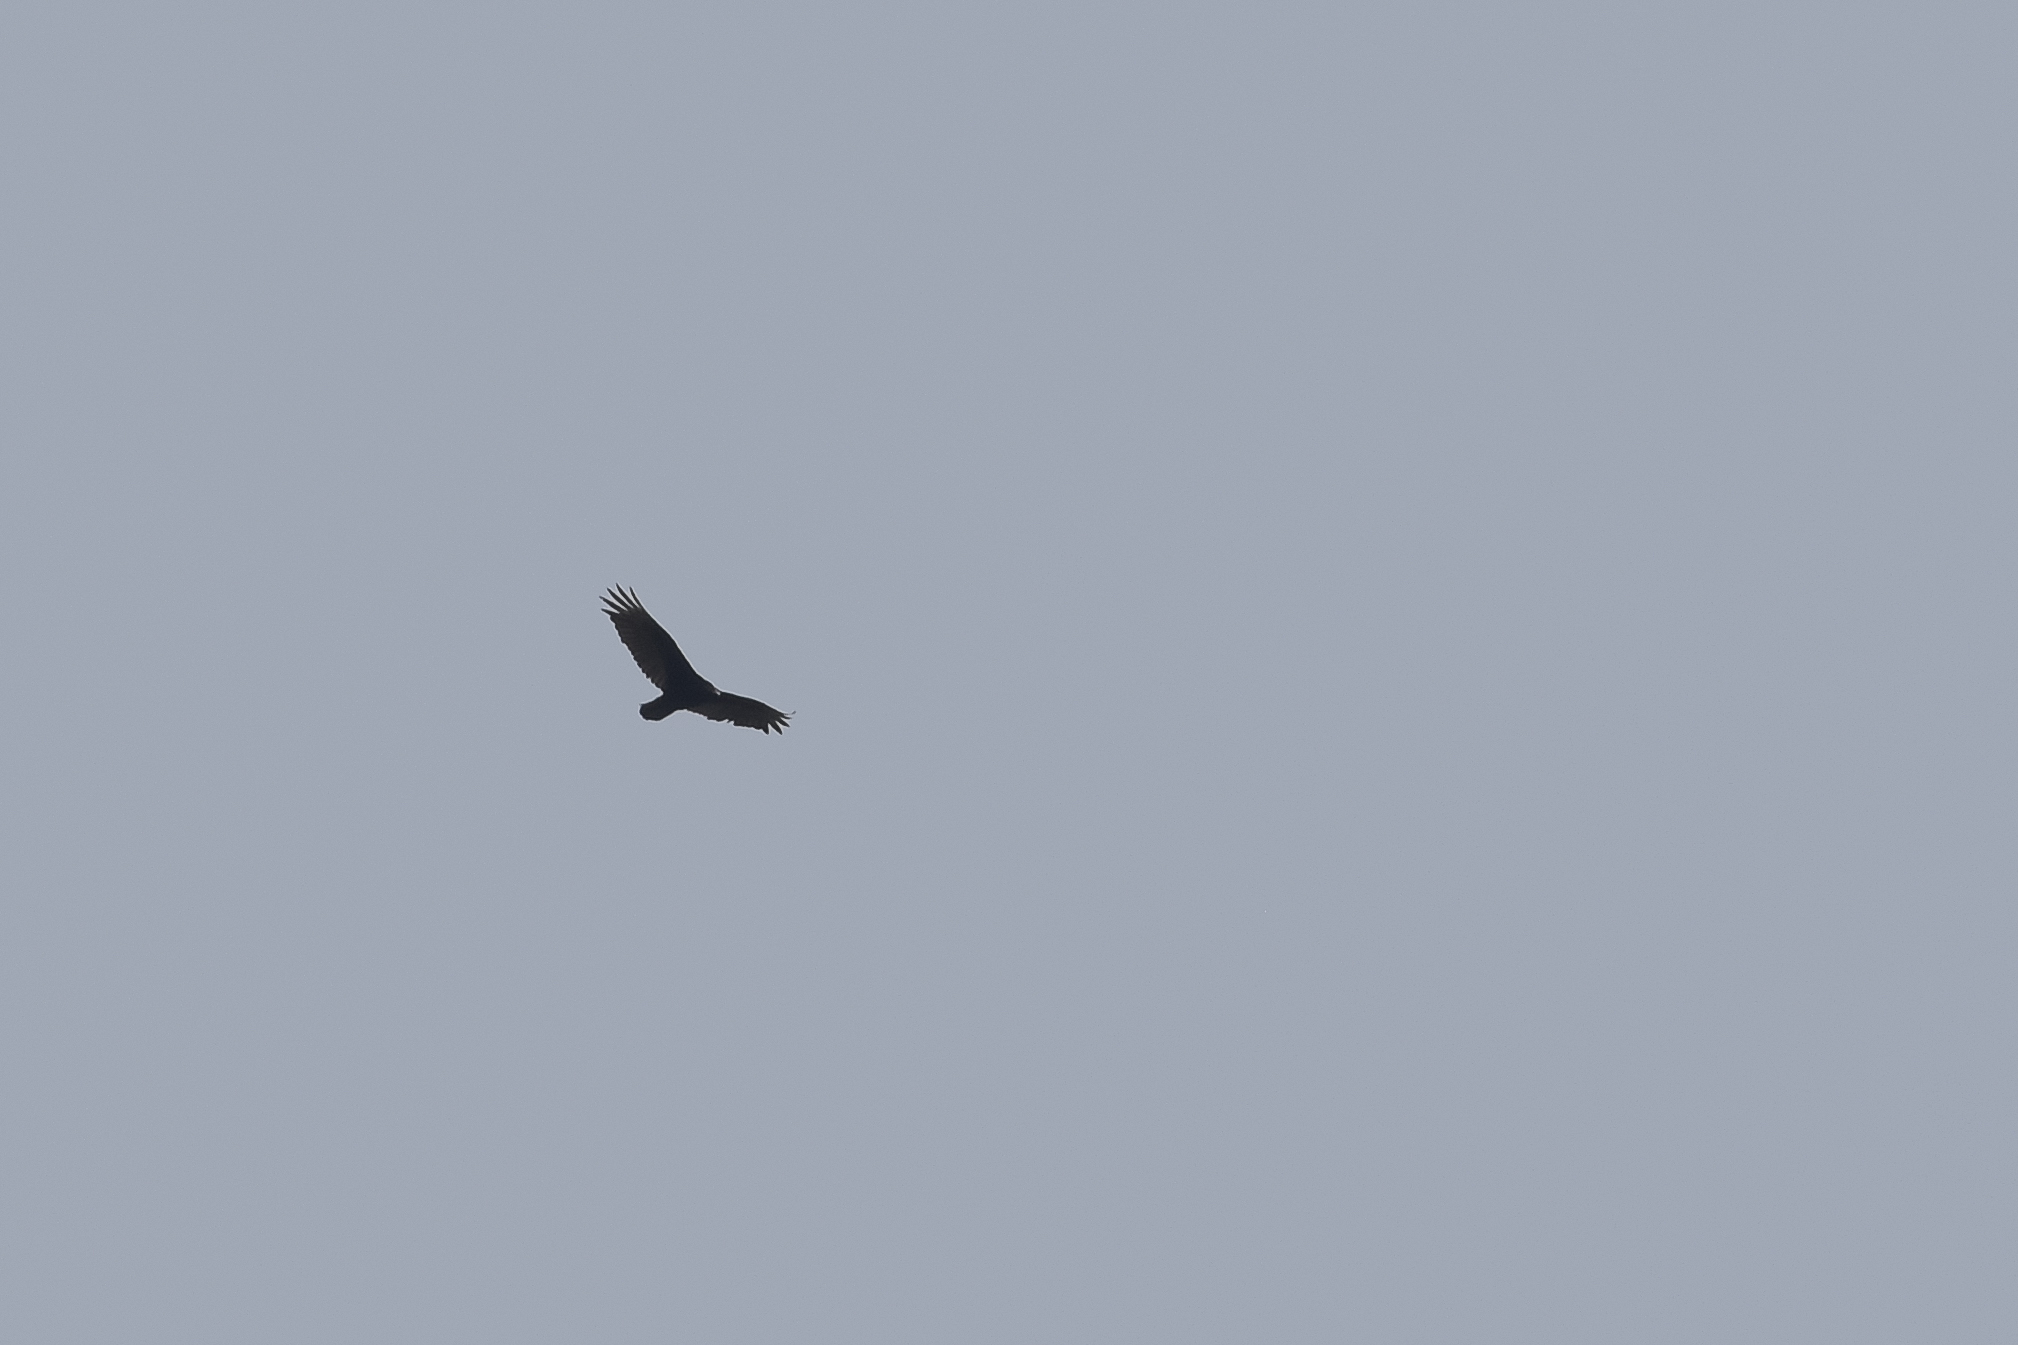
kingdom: Animalia
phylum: Chordata
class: Aves
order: Accipitriformes
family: Cathartidae
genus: Cathartes
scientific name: Cathartes aura
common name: Turkey vulture
